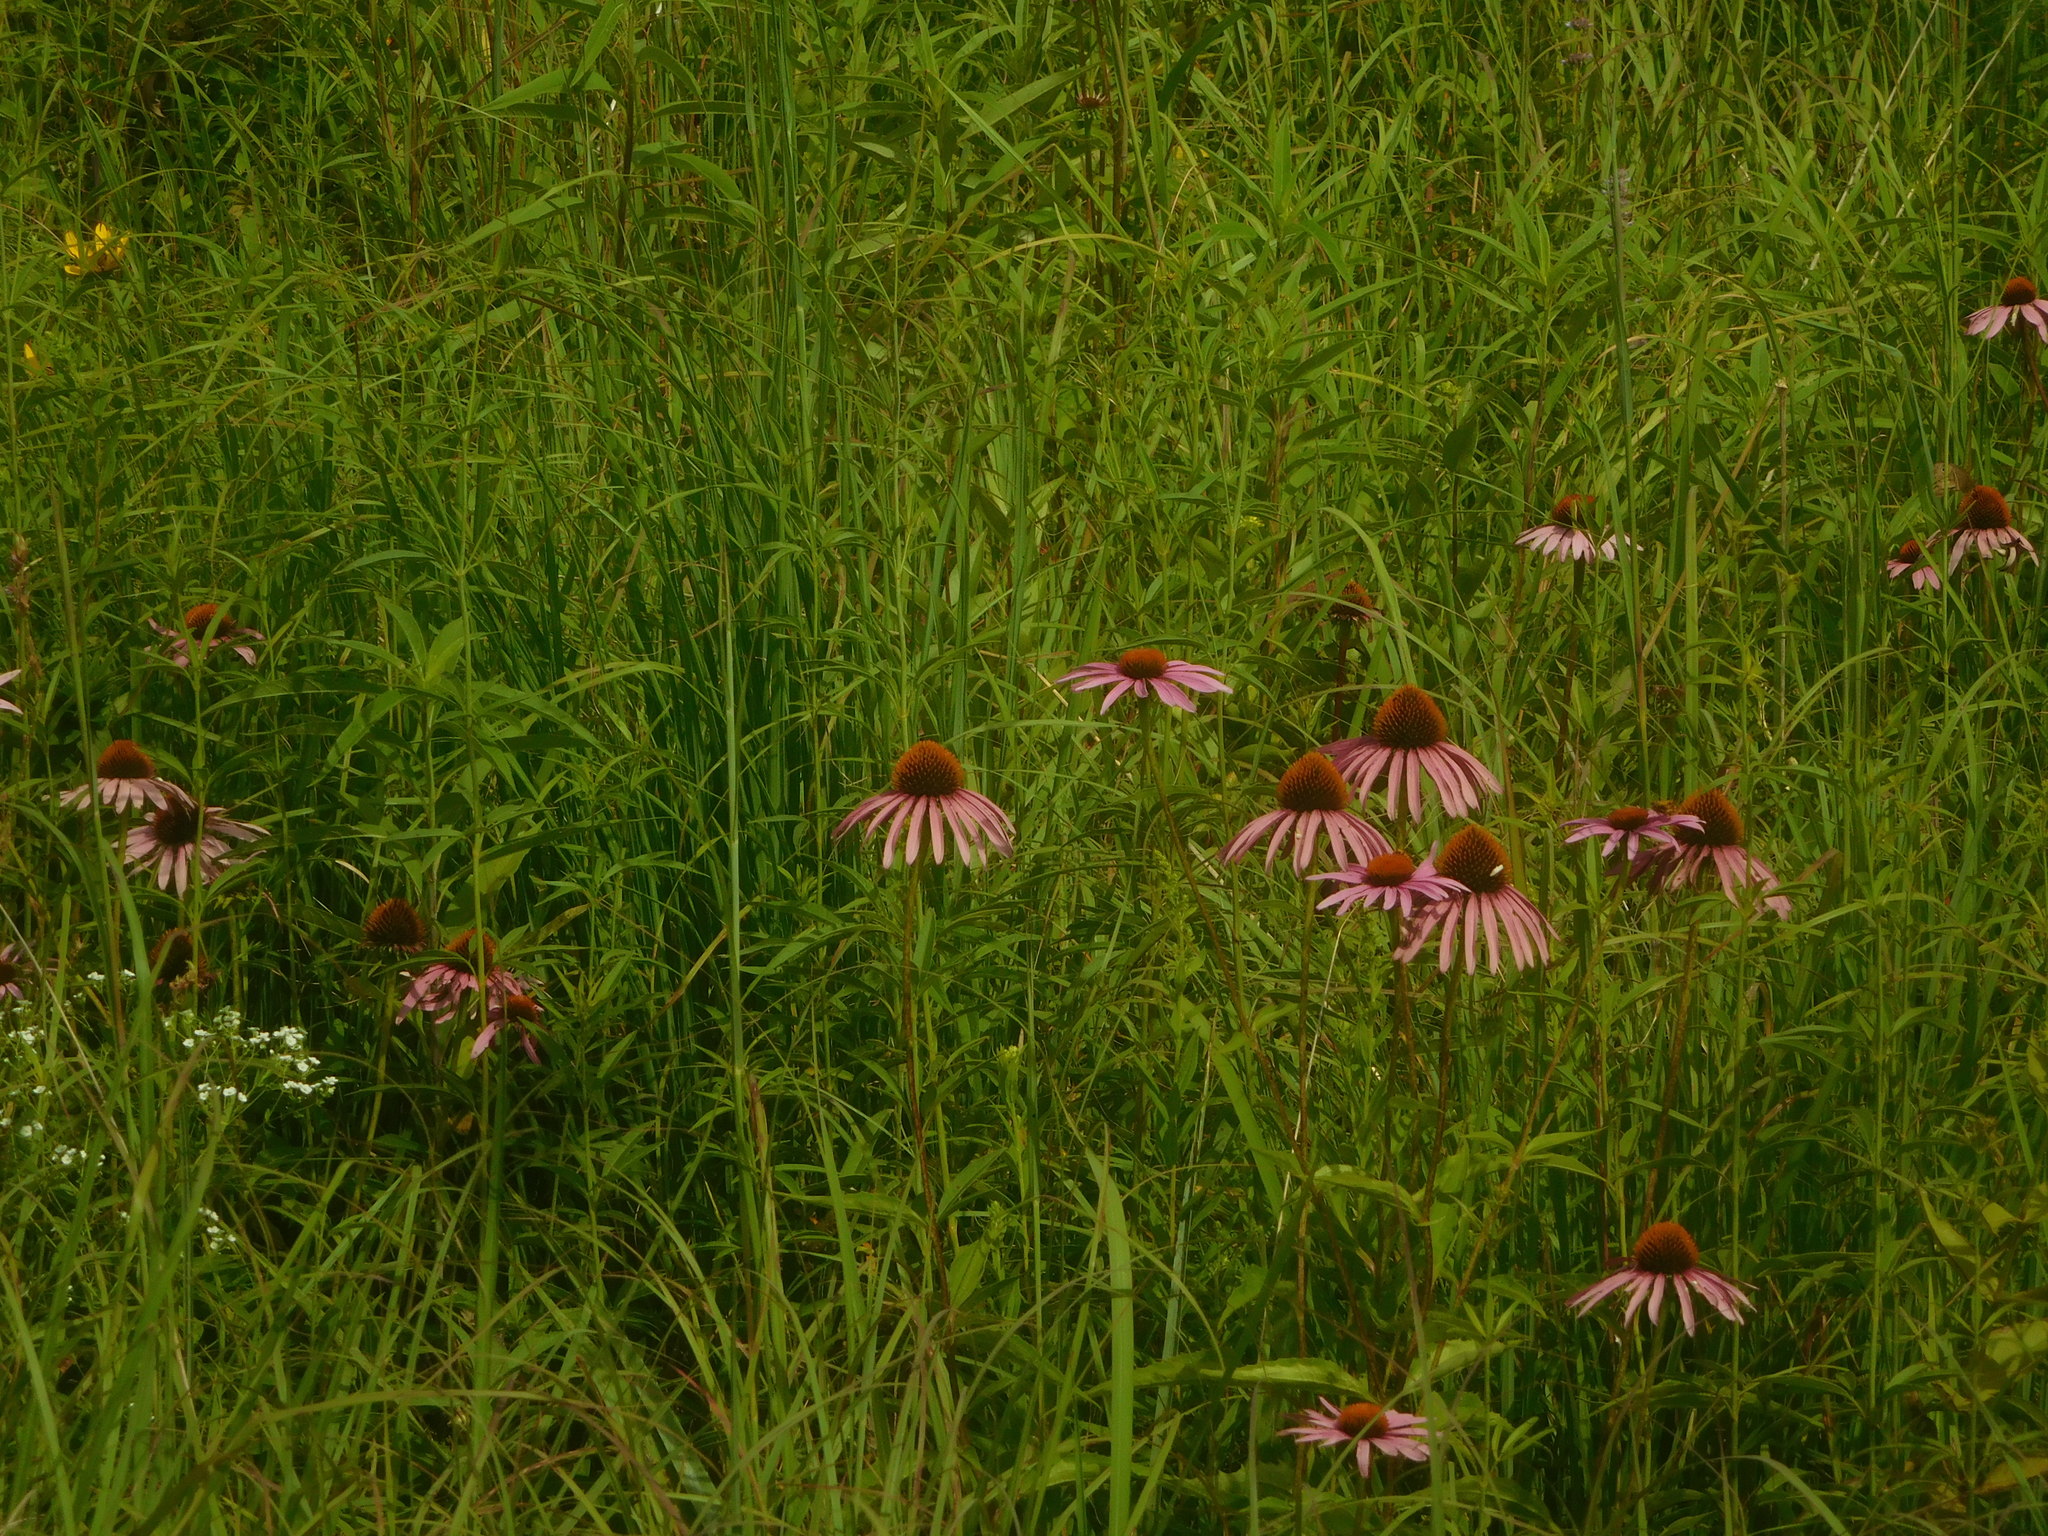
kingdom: Plantae
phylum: Tracheophyta
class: Magnoliopsida
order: Asterales
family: Asteraceae
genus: Echinacea
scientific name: Echinacea purpurea
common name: Broad-leaved purple coneflower
